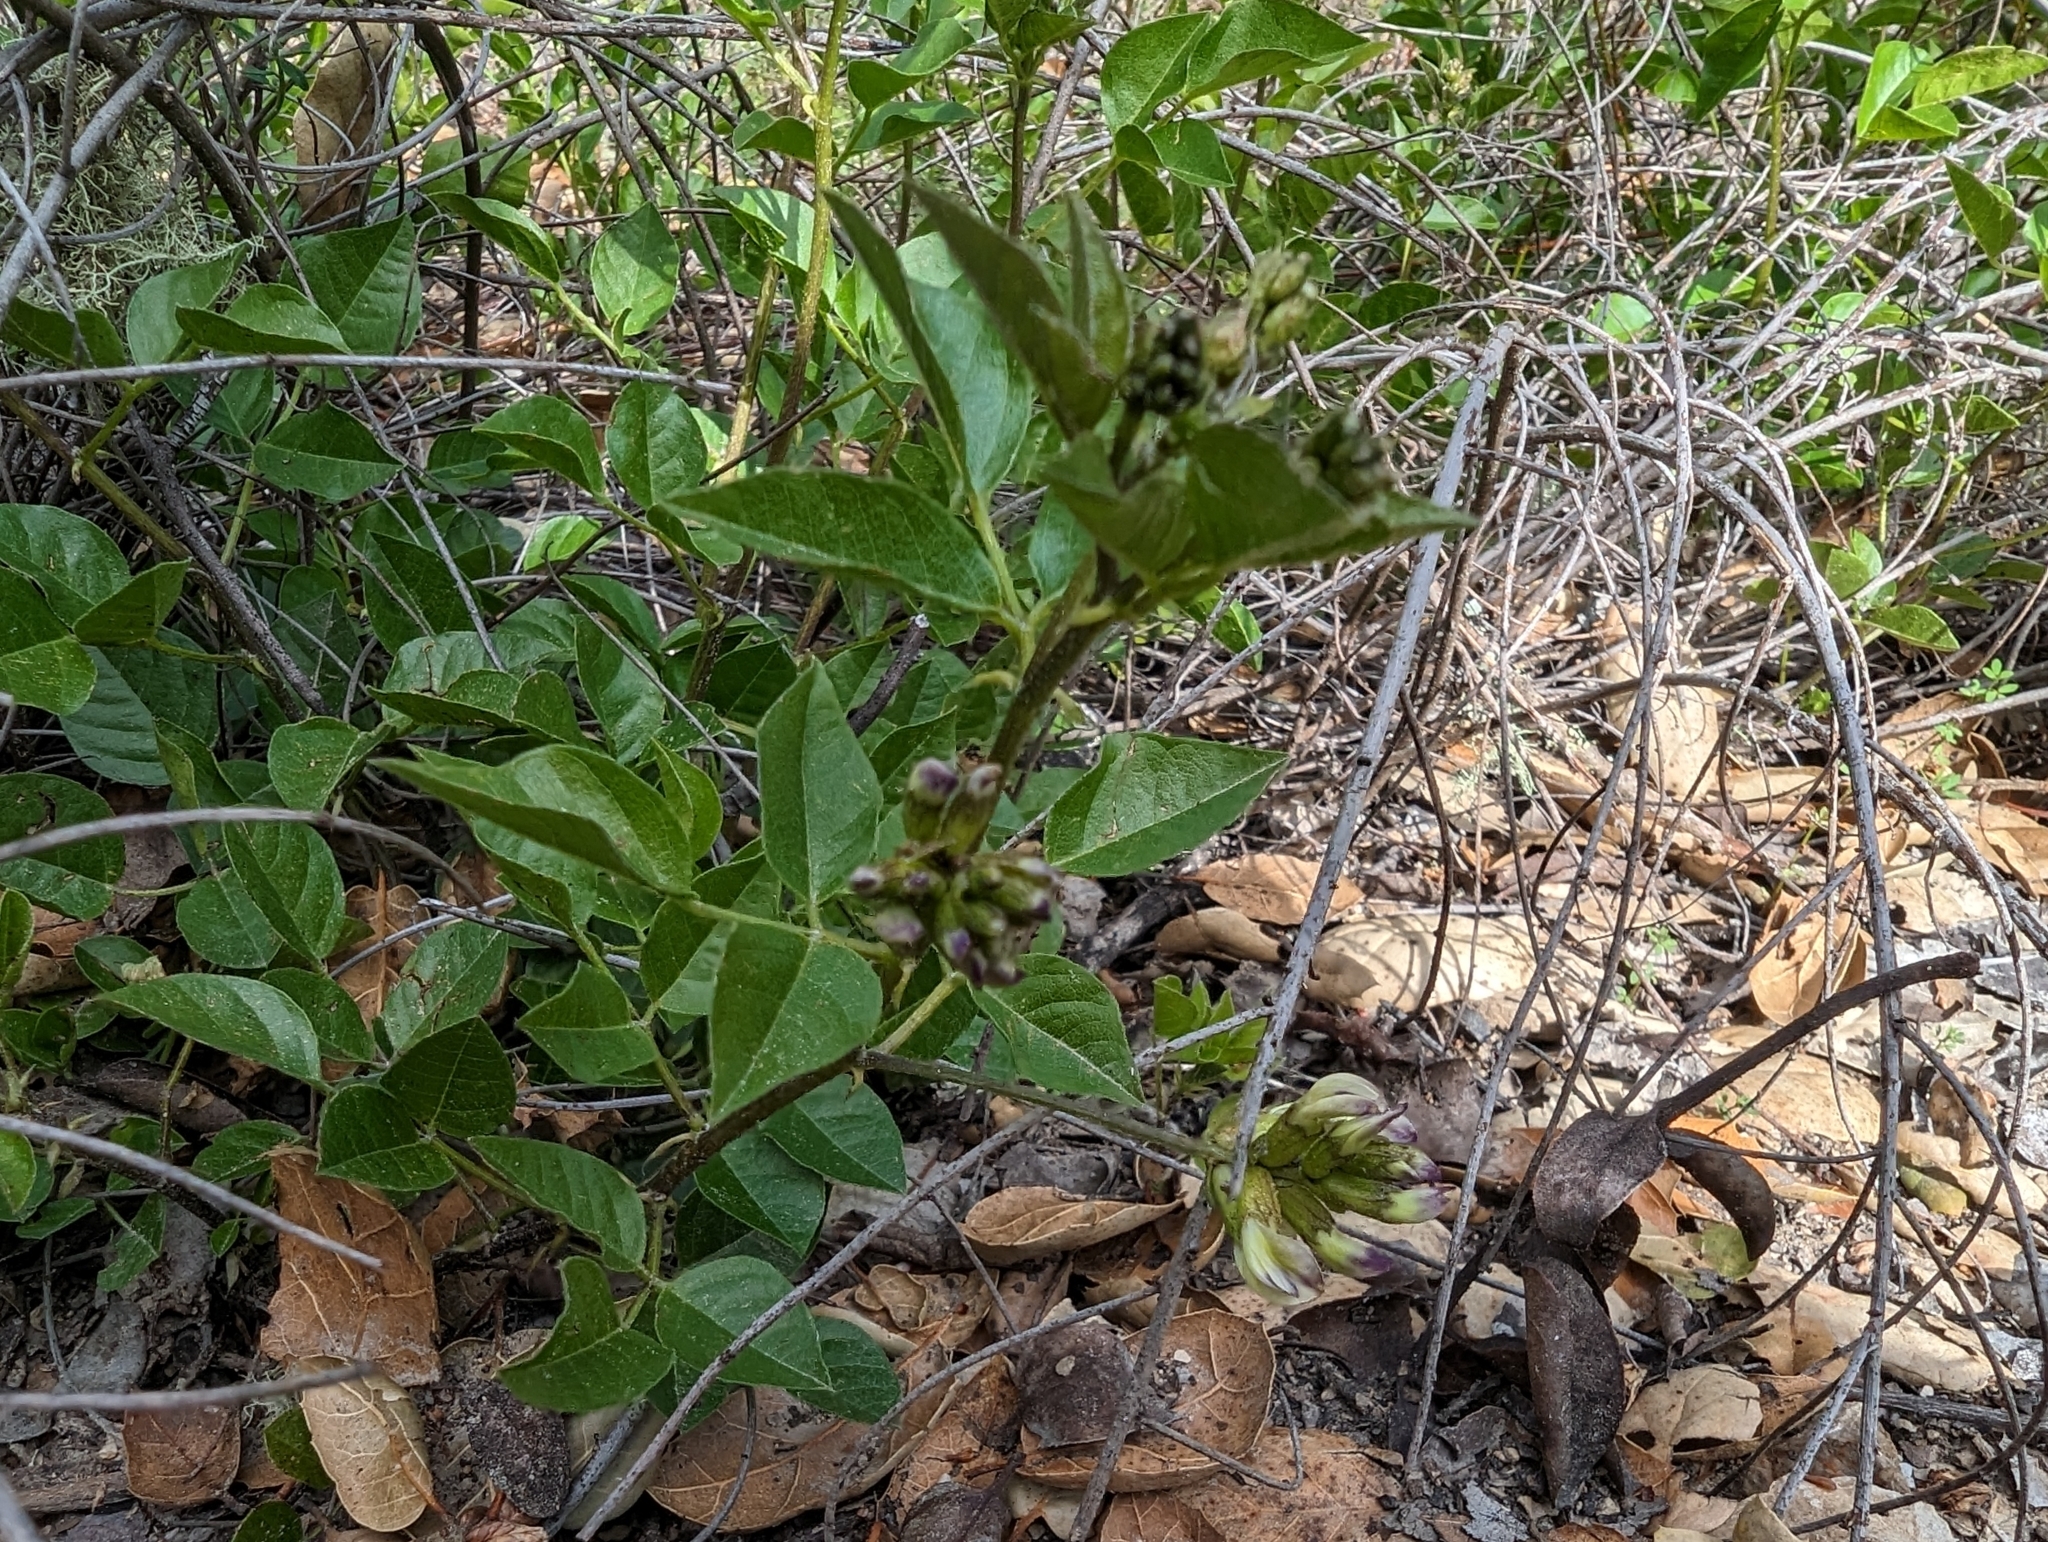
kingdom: Plantae
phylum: Tracheophyta
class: Magnoliopsida
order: Fabales
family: Fabaceae
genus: Rupertia
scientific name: Rupertia physodes
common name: California-tea
